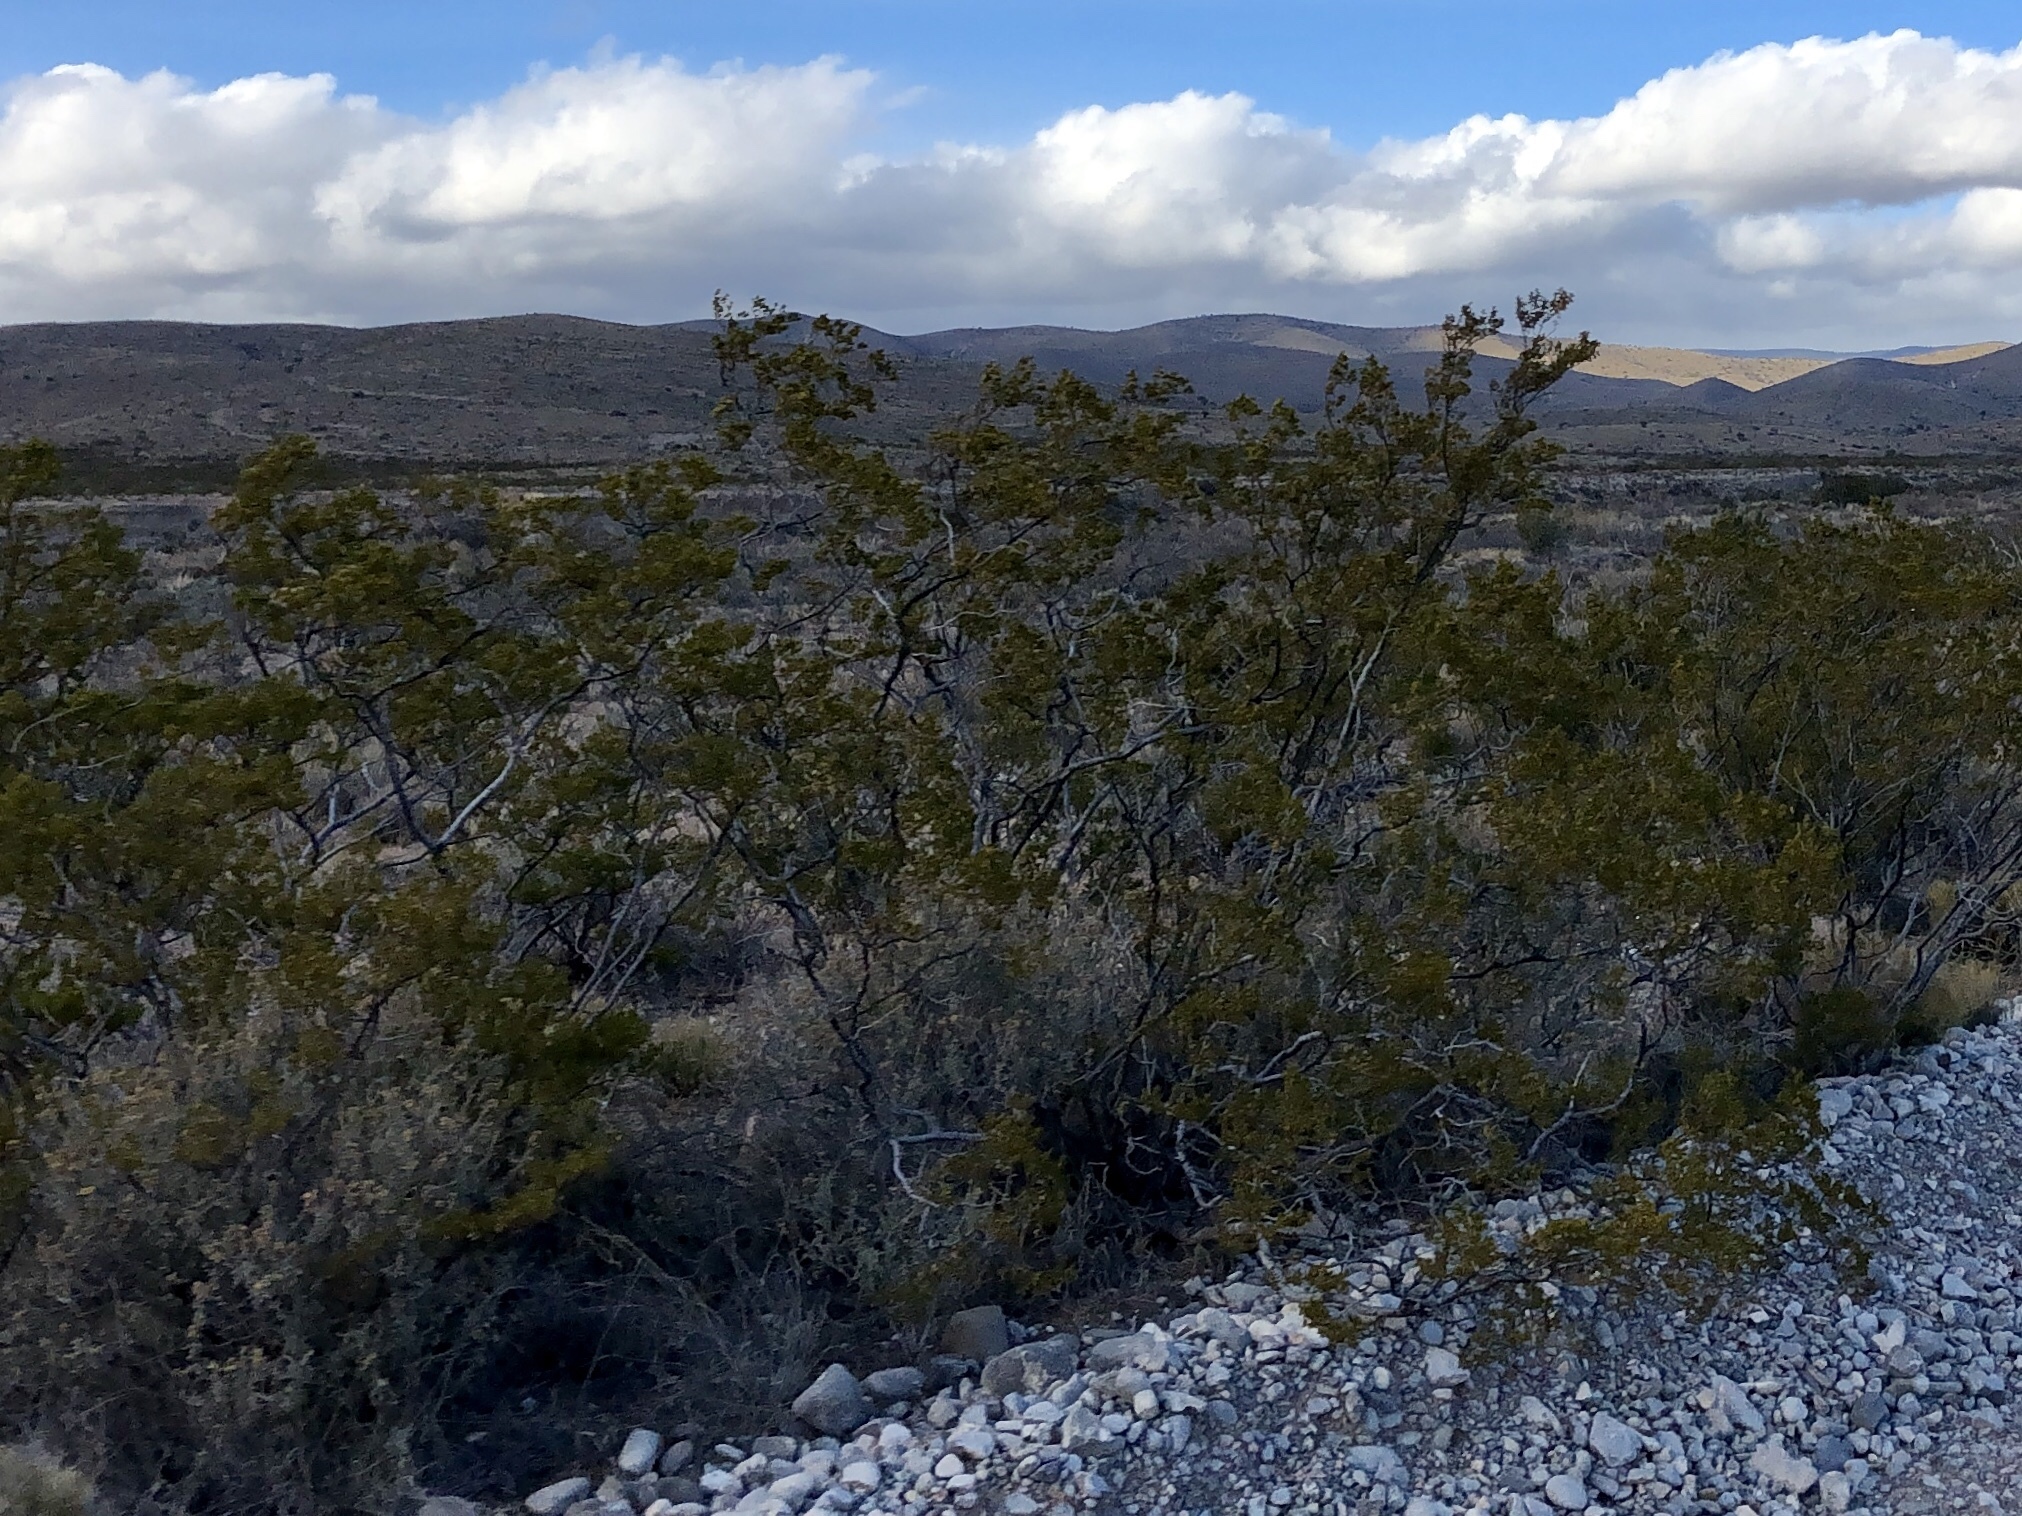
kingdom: Plantae
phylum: Tracheophyta
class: Magnoliopsida
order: Zygophyllales
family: Zygophyllaceae
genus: Larrea
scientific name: Larrea tridentata
